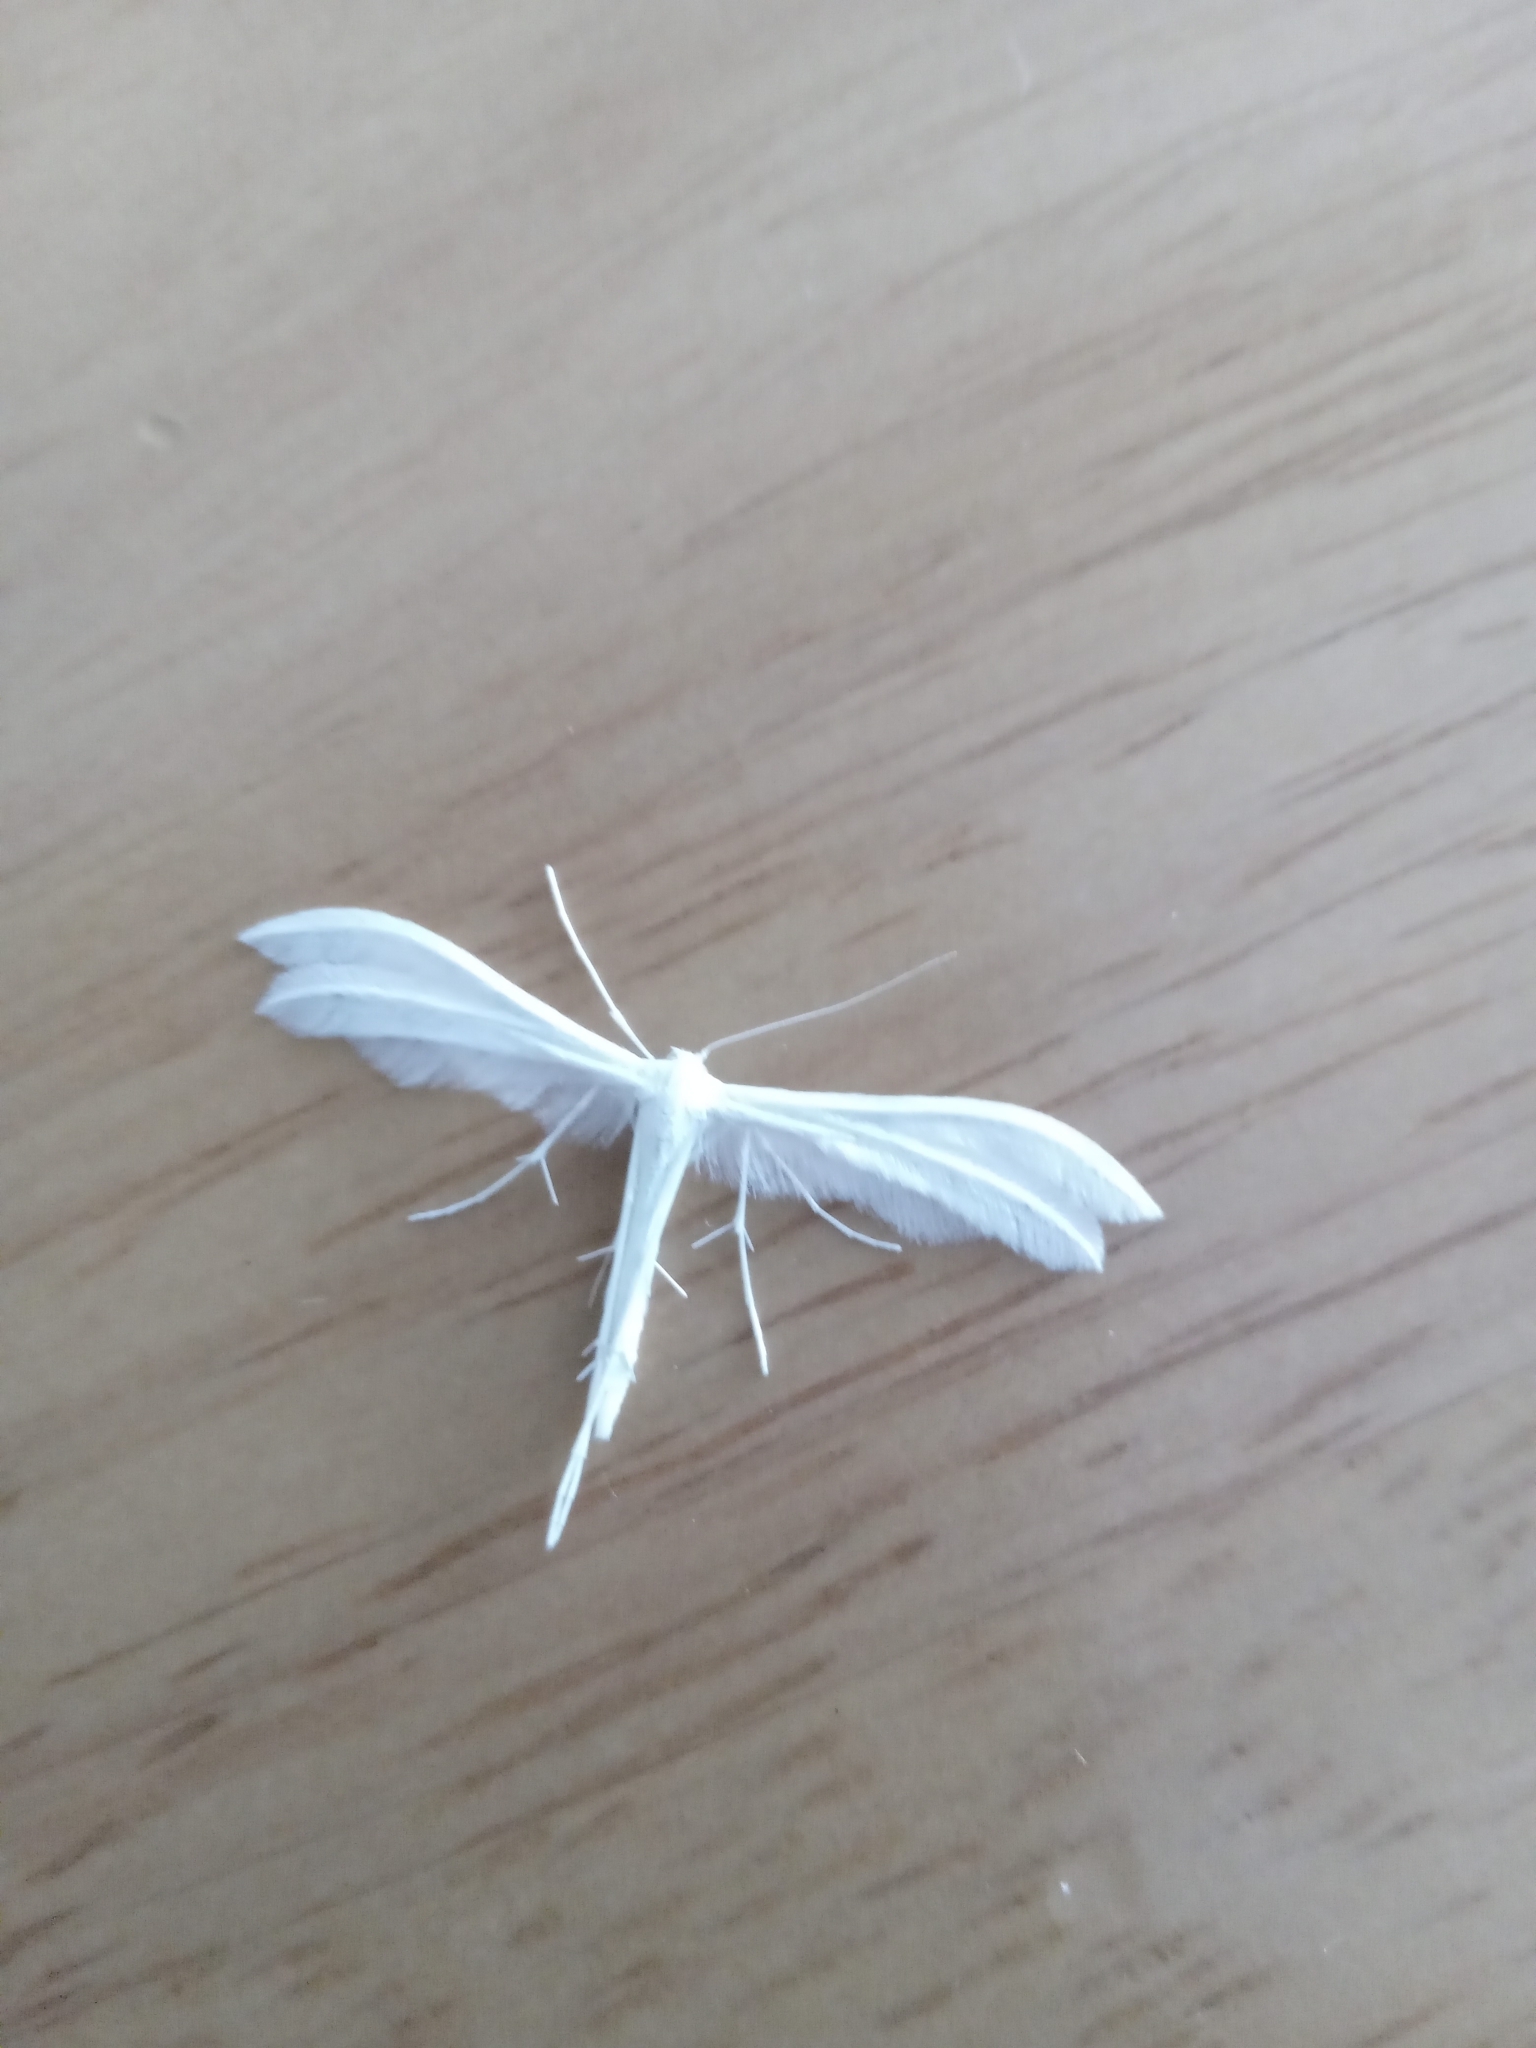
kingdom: Animalia
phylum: Arthropoda
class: Insecta
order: Lepidoptera
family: Pterophoridae
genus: Pterophorus
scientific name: Pterophorus pentadactyla
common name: White plume moth
